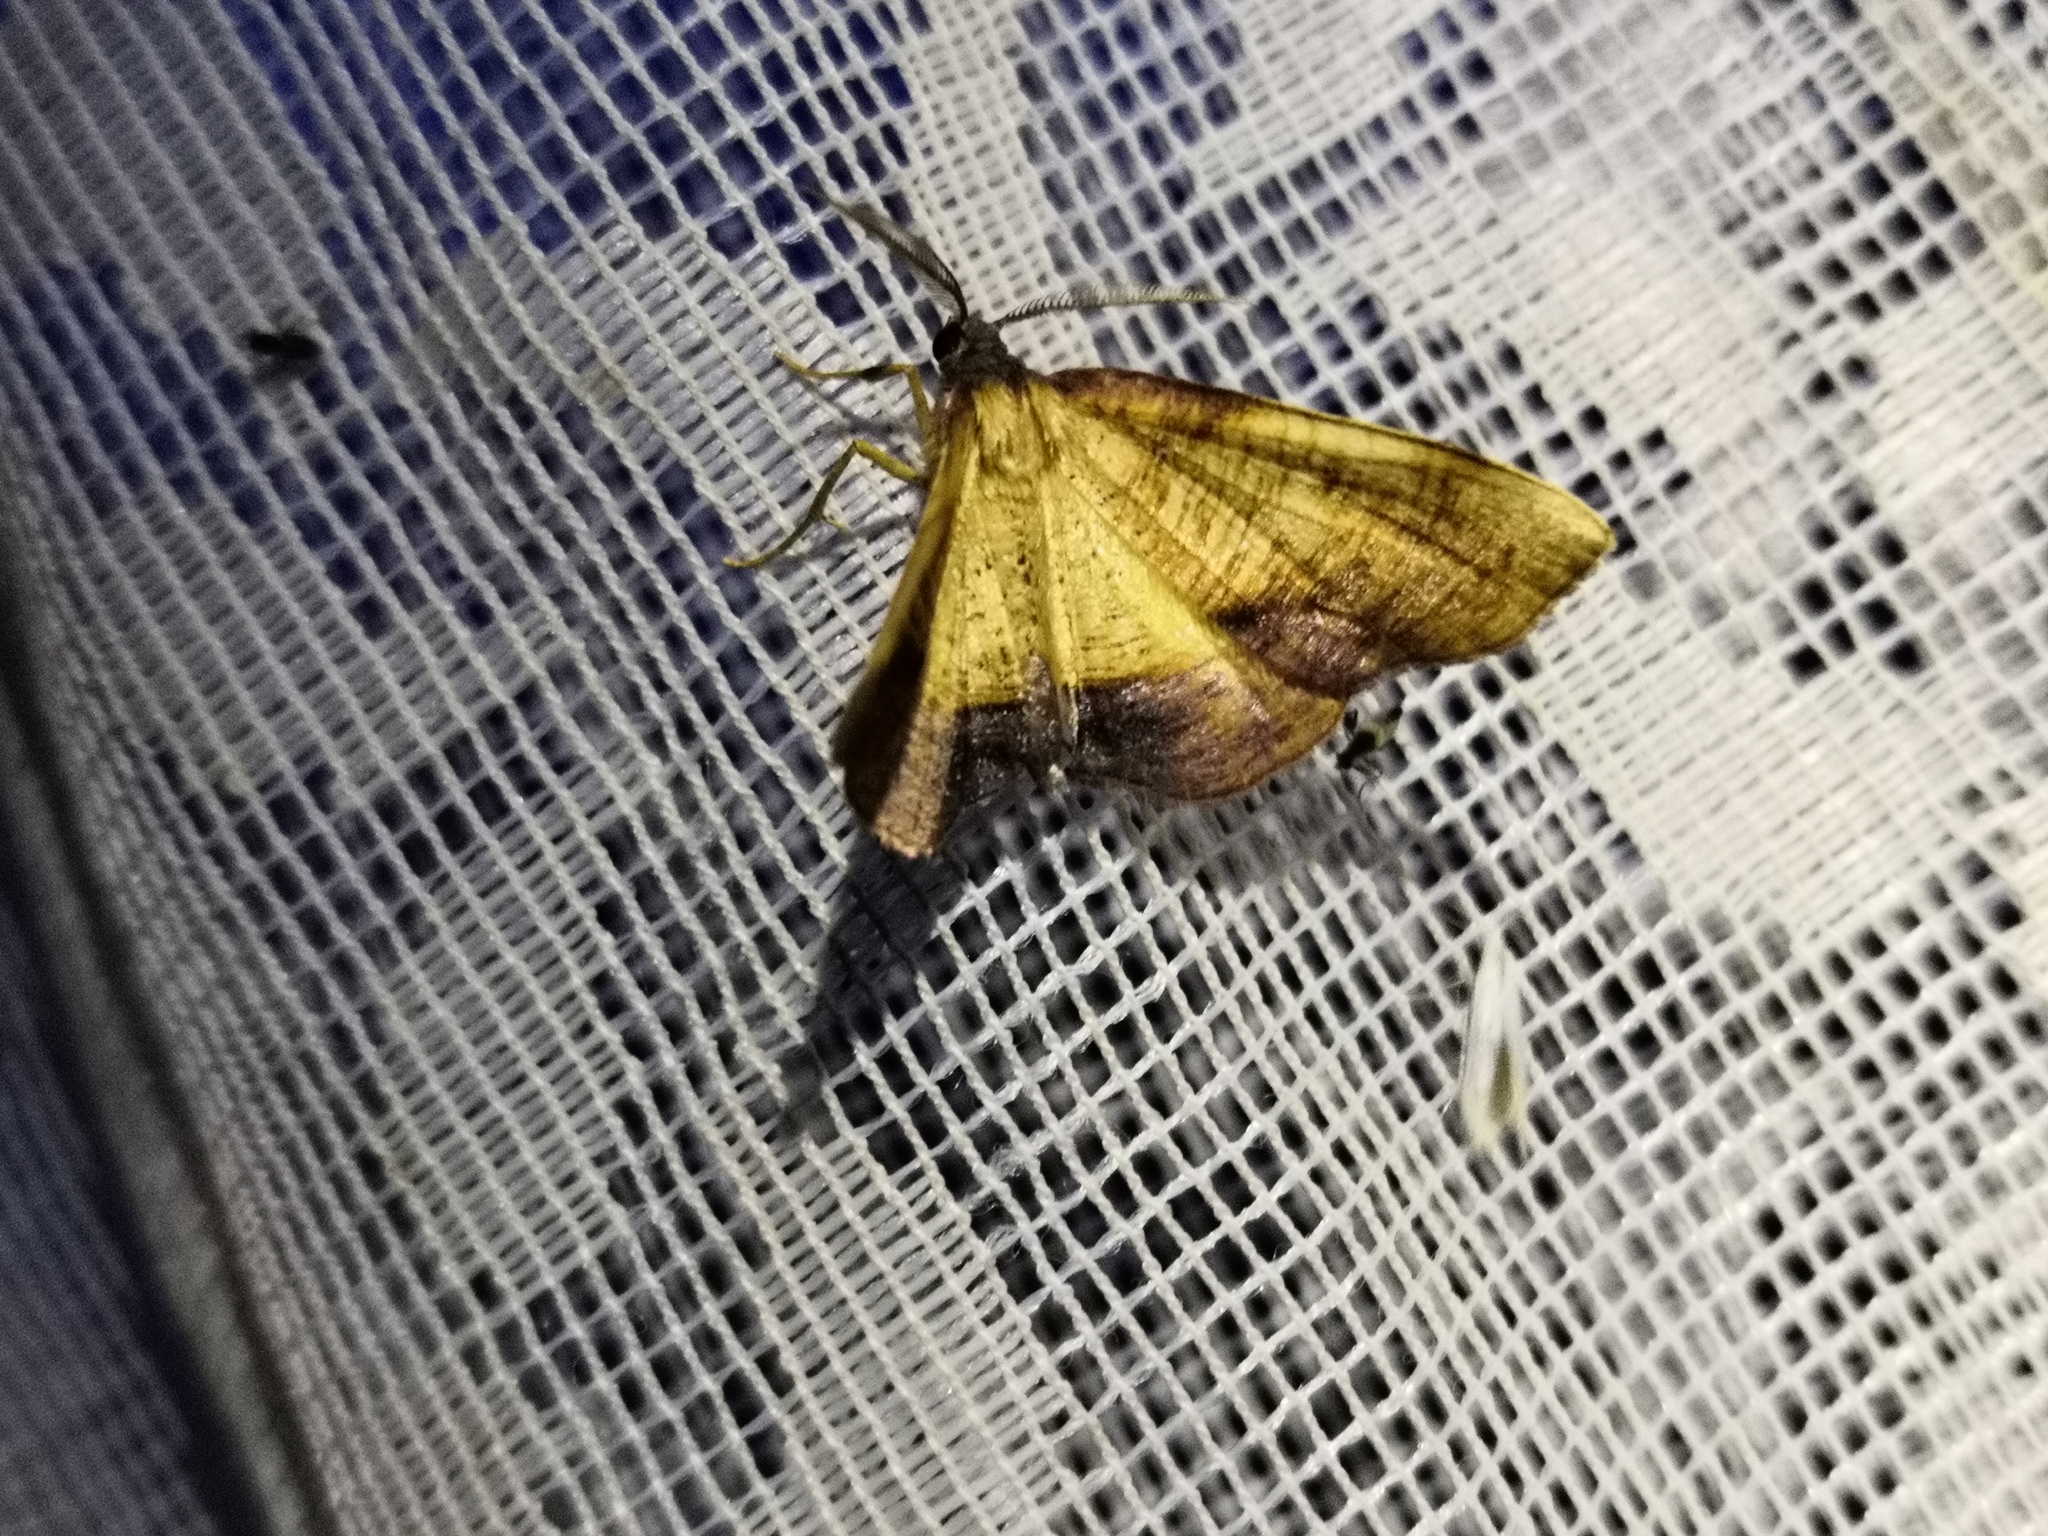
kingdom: Animalia
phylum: Arthropoda
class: Insecta
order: Lepidoptera
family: Geometridae
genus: Plagodis
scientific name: Plagodis dolabraria
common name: Scorched wing
